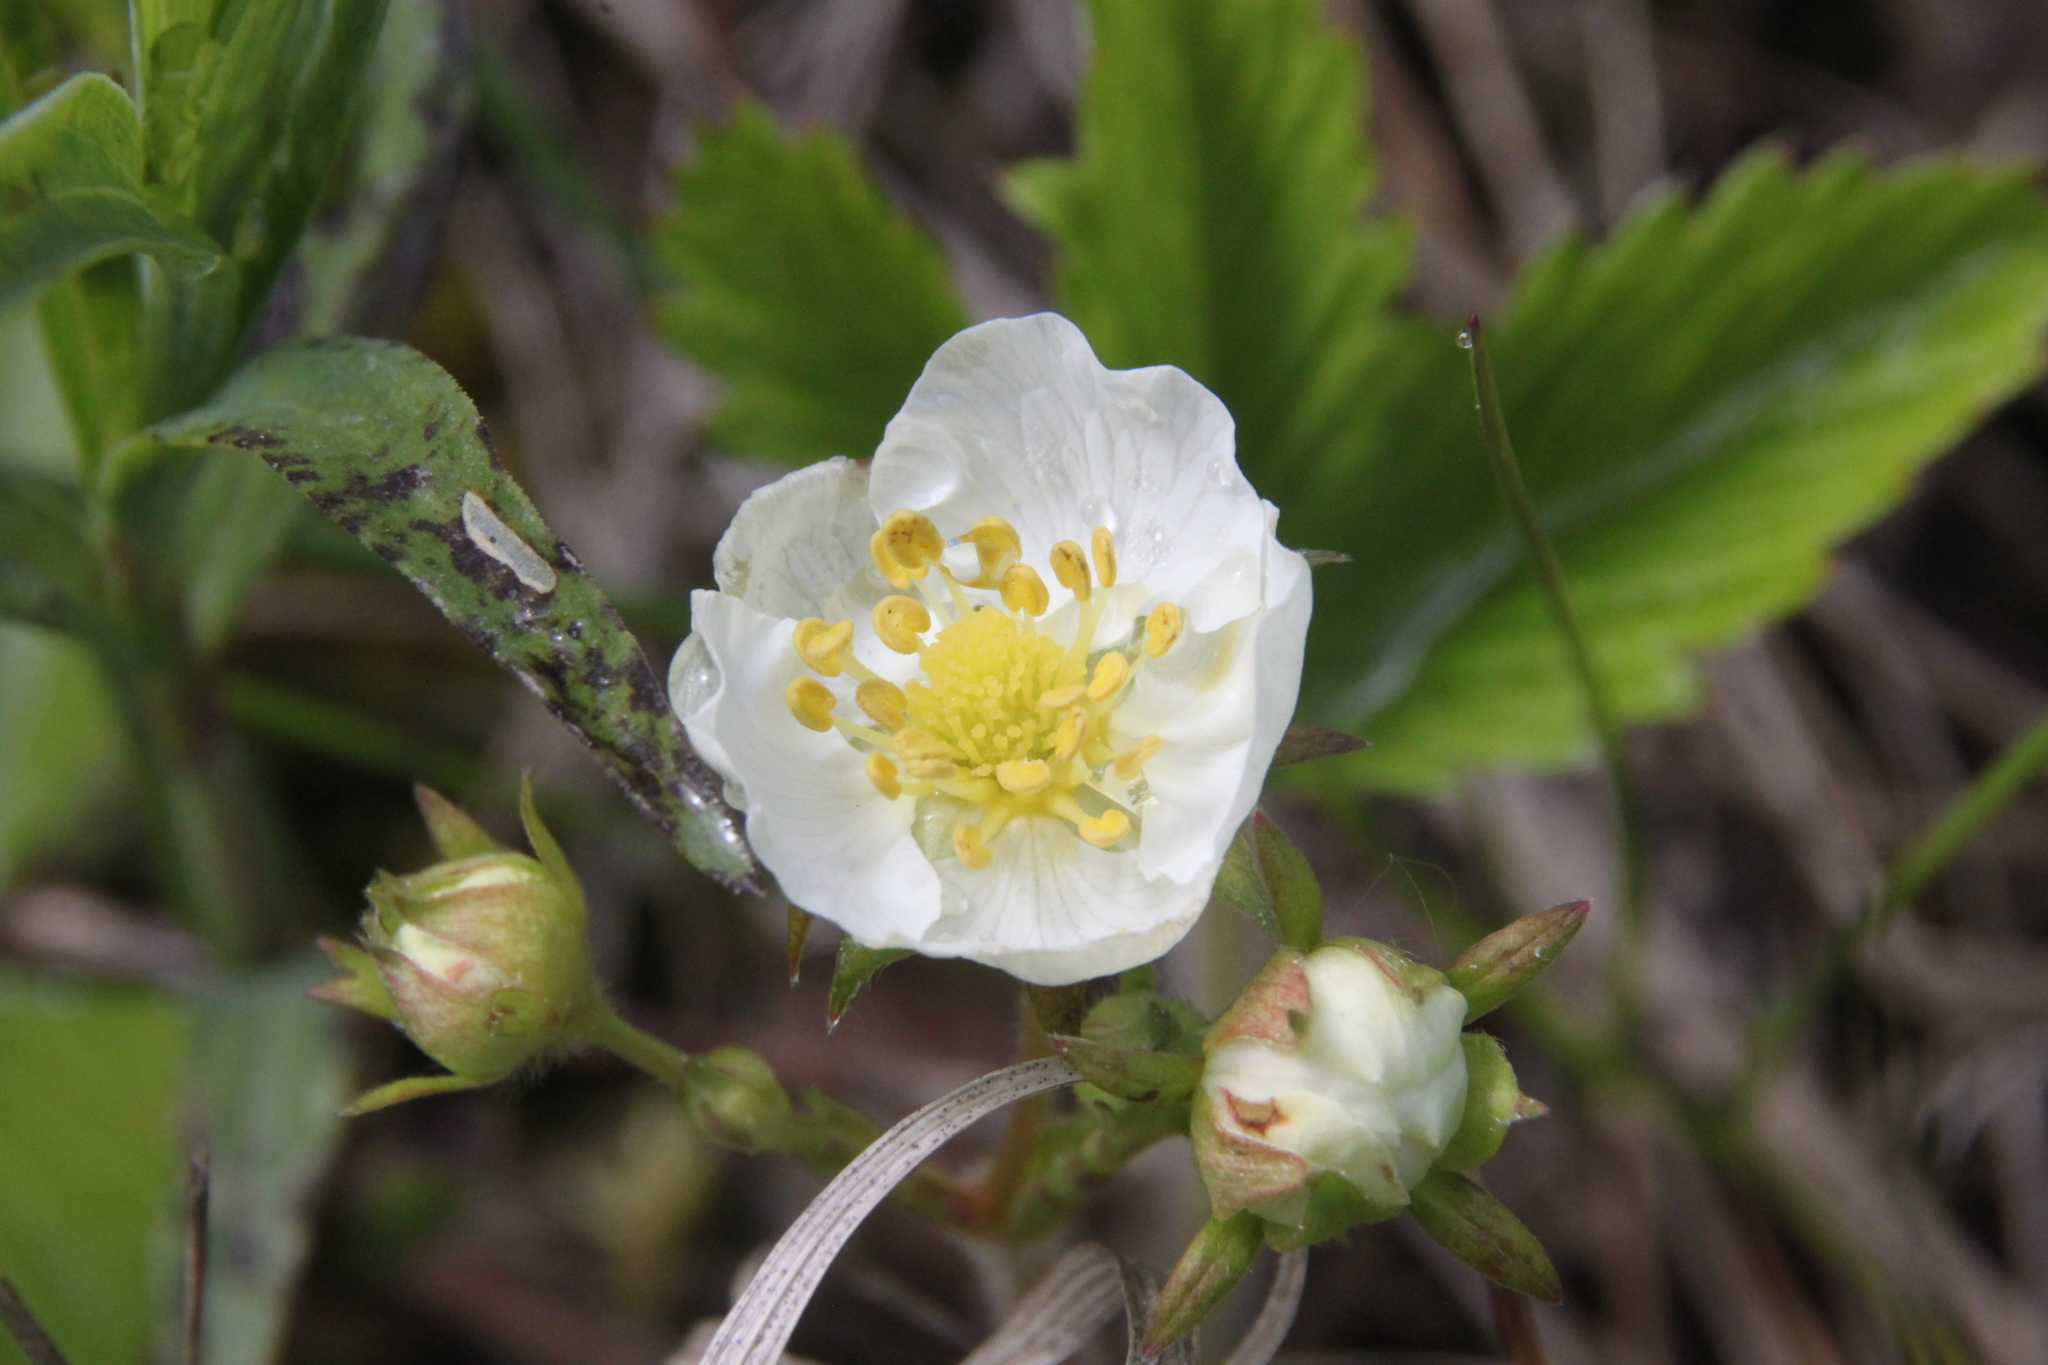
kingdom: Plantae
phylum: Tracheophyta
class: Magnoliopsida
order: Rosales
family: Rosaceae
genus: Fragaria
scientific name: Fragaria viridis
